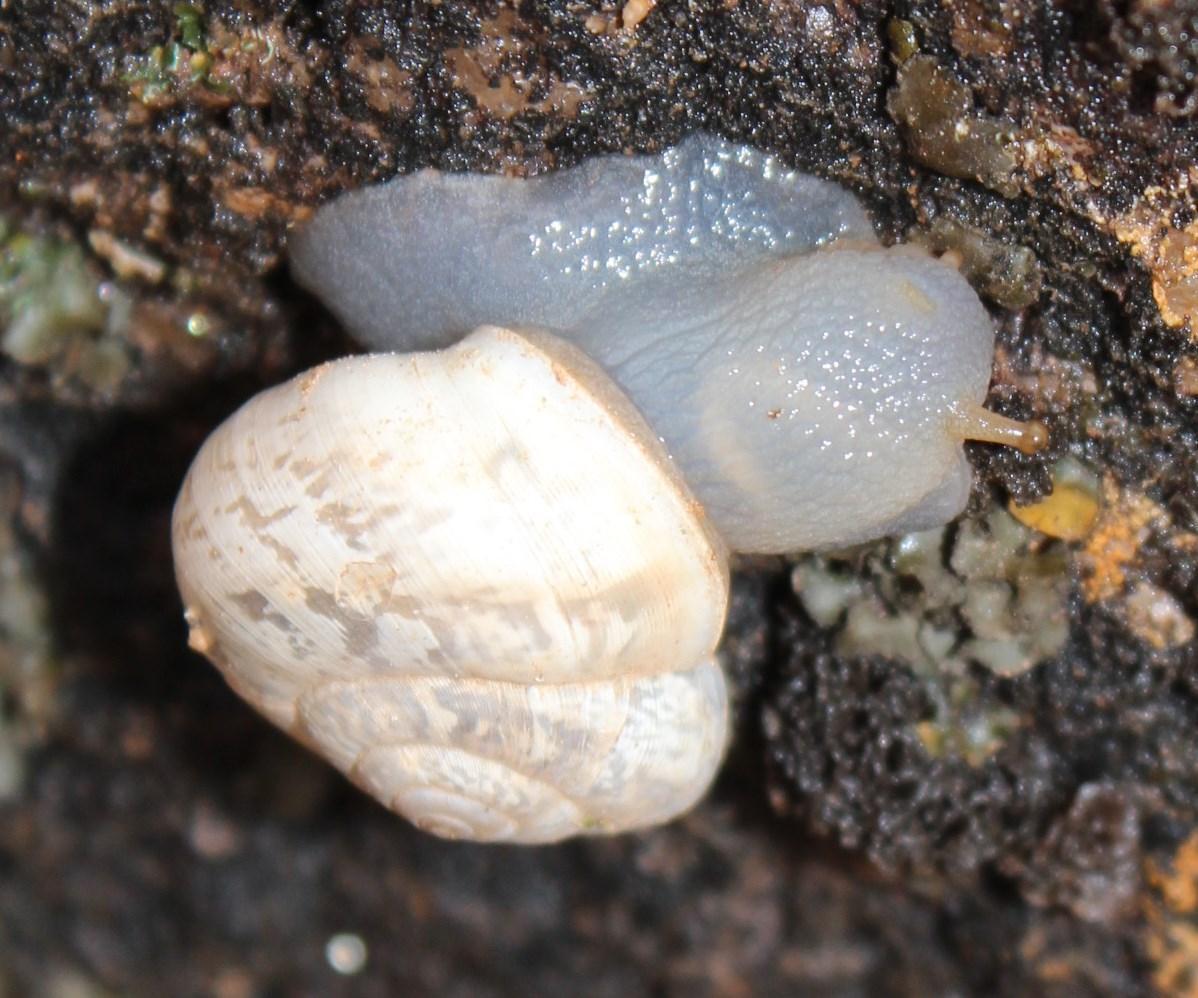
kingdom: Animalia
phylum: Mollusca
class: Gastropoda
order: Stylommatophora
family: Dorcasiidae
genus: Dorcasia
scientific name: Dorcasia rogersi
